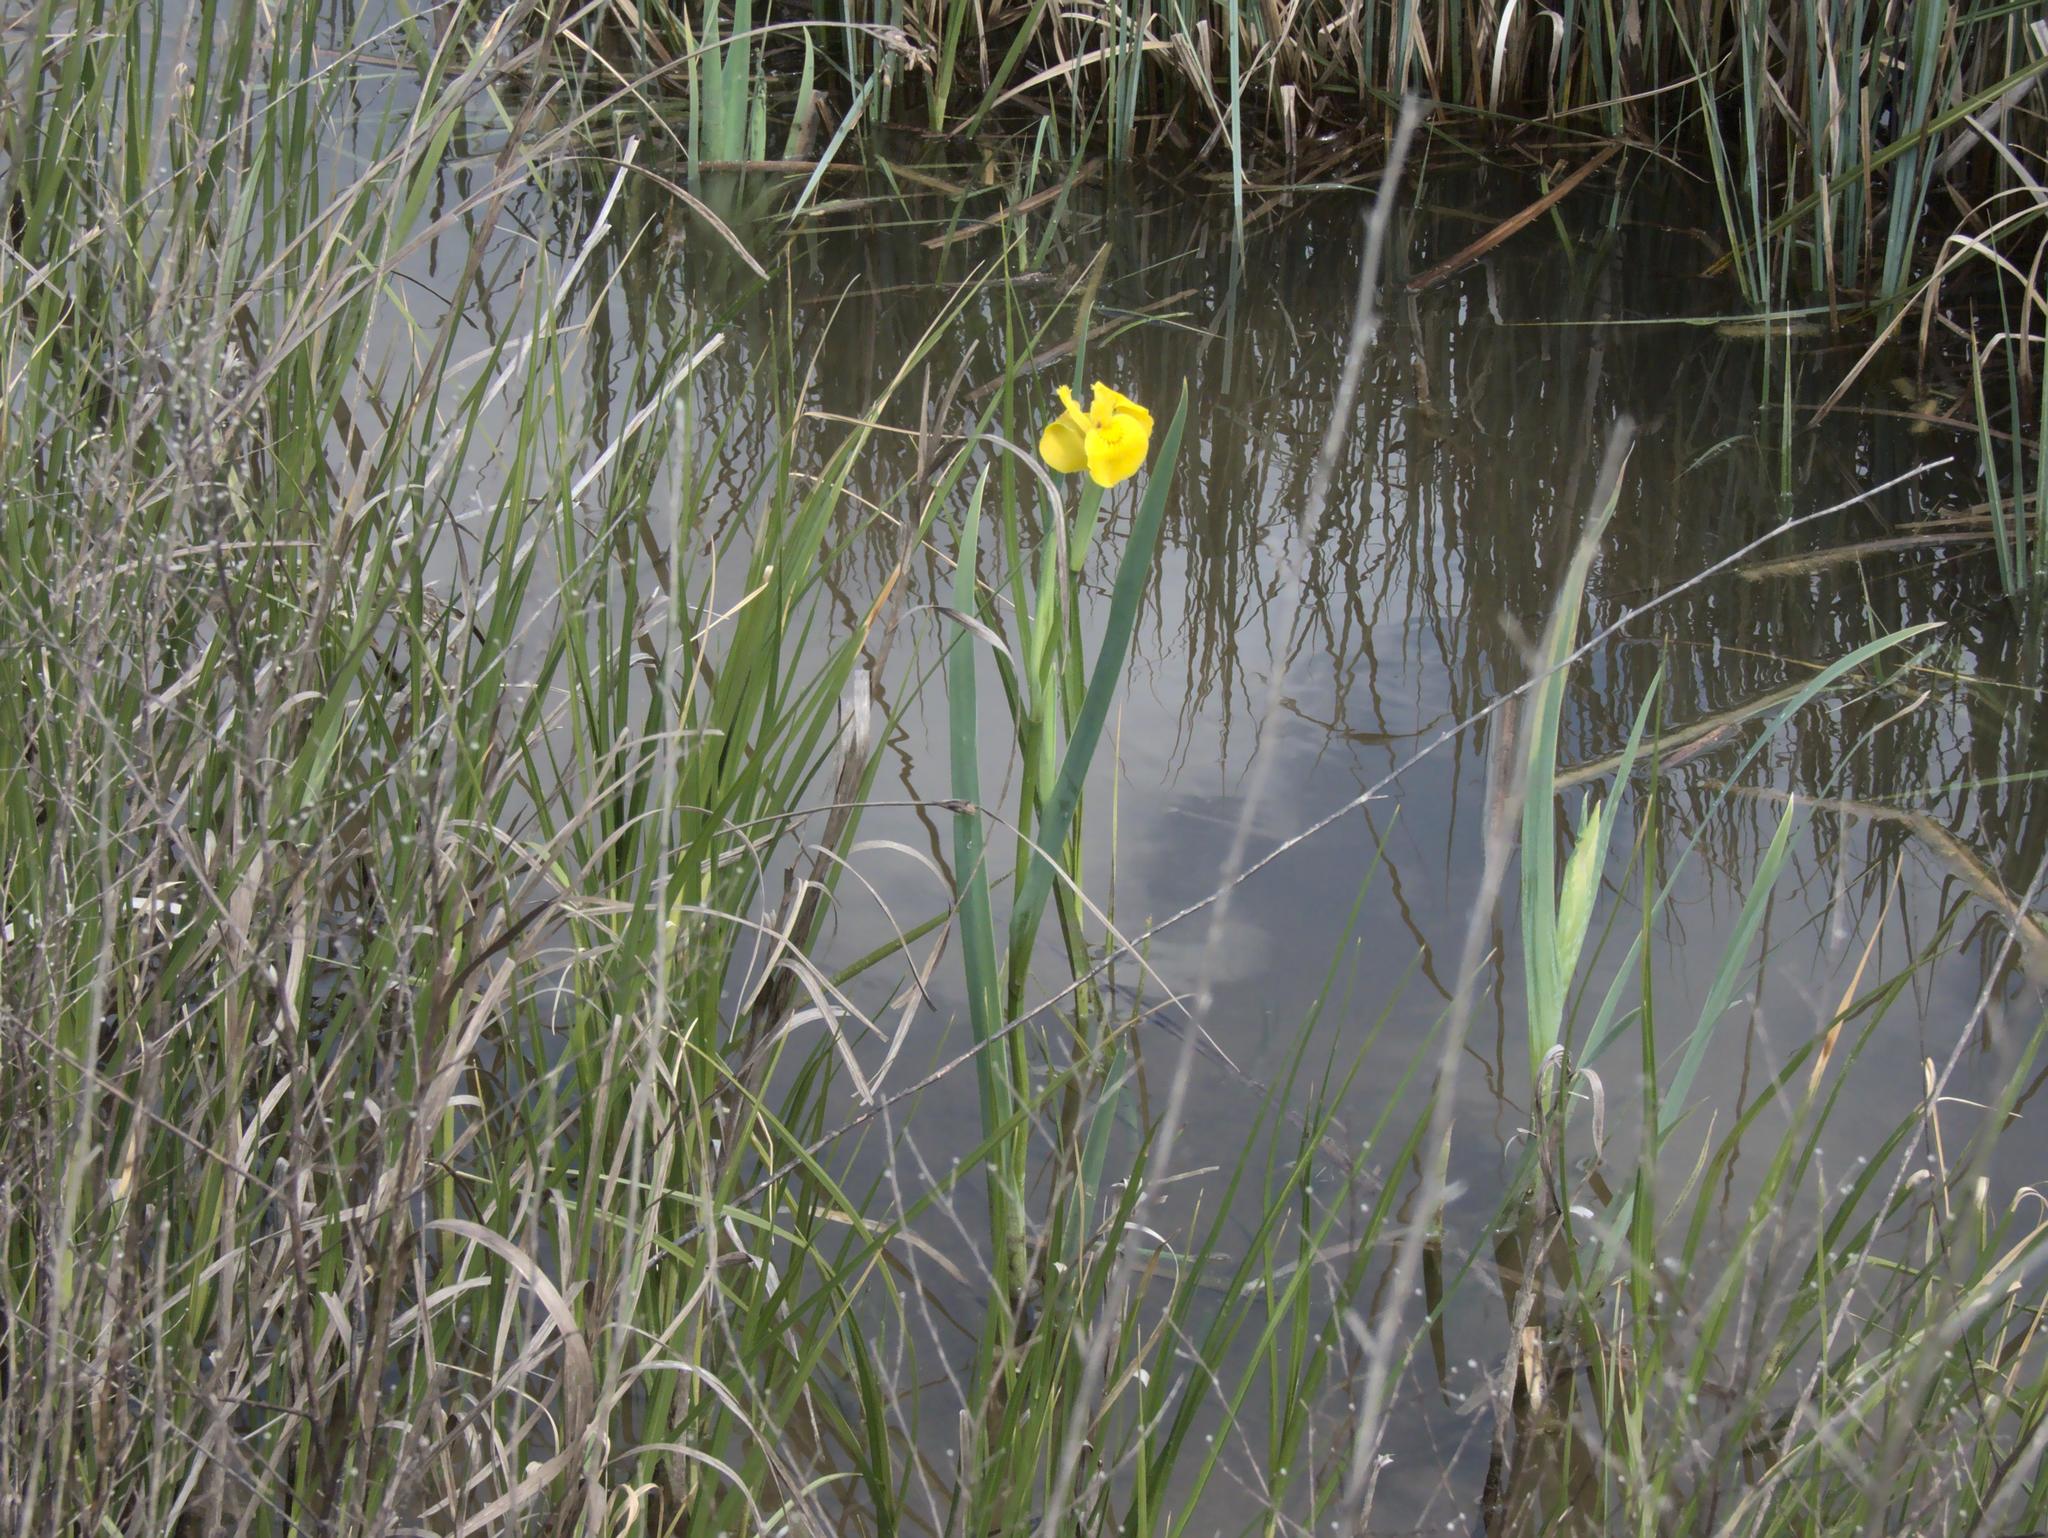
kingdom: Plantae
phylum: Tracheophyta
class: Liliopsida
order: Asparagales
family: Iridaceae
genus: Iris
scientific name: Iris pseudacorus
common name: Yellow flag
